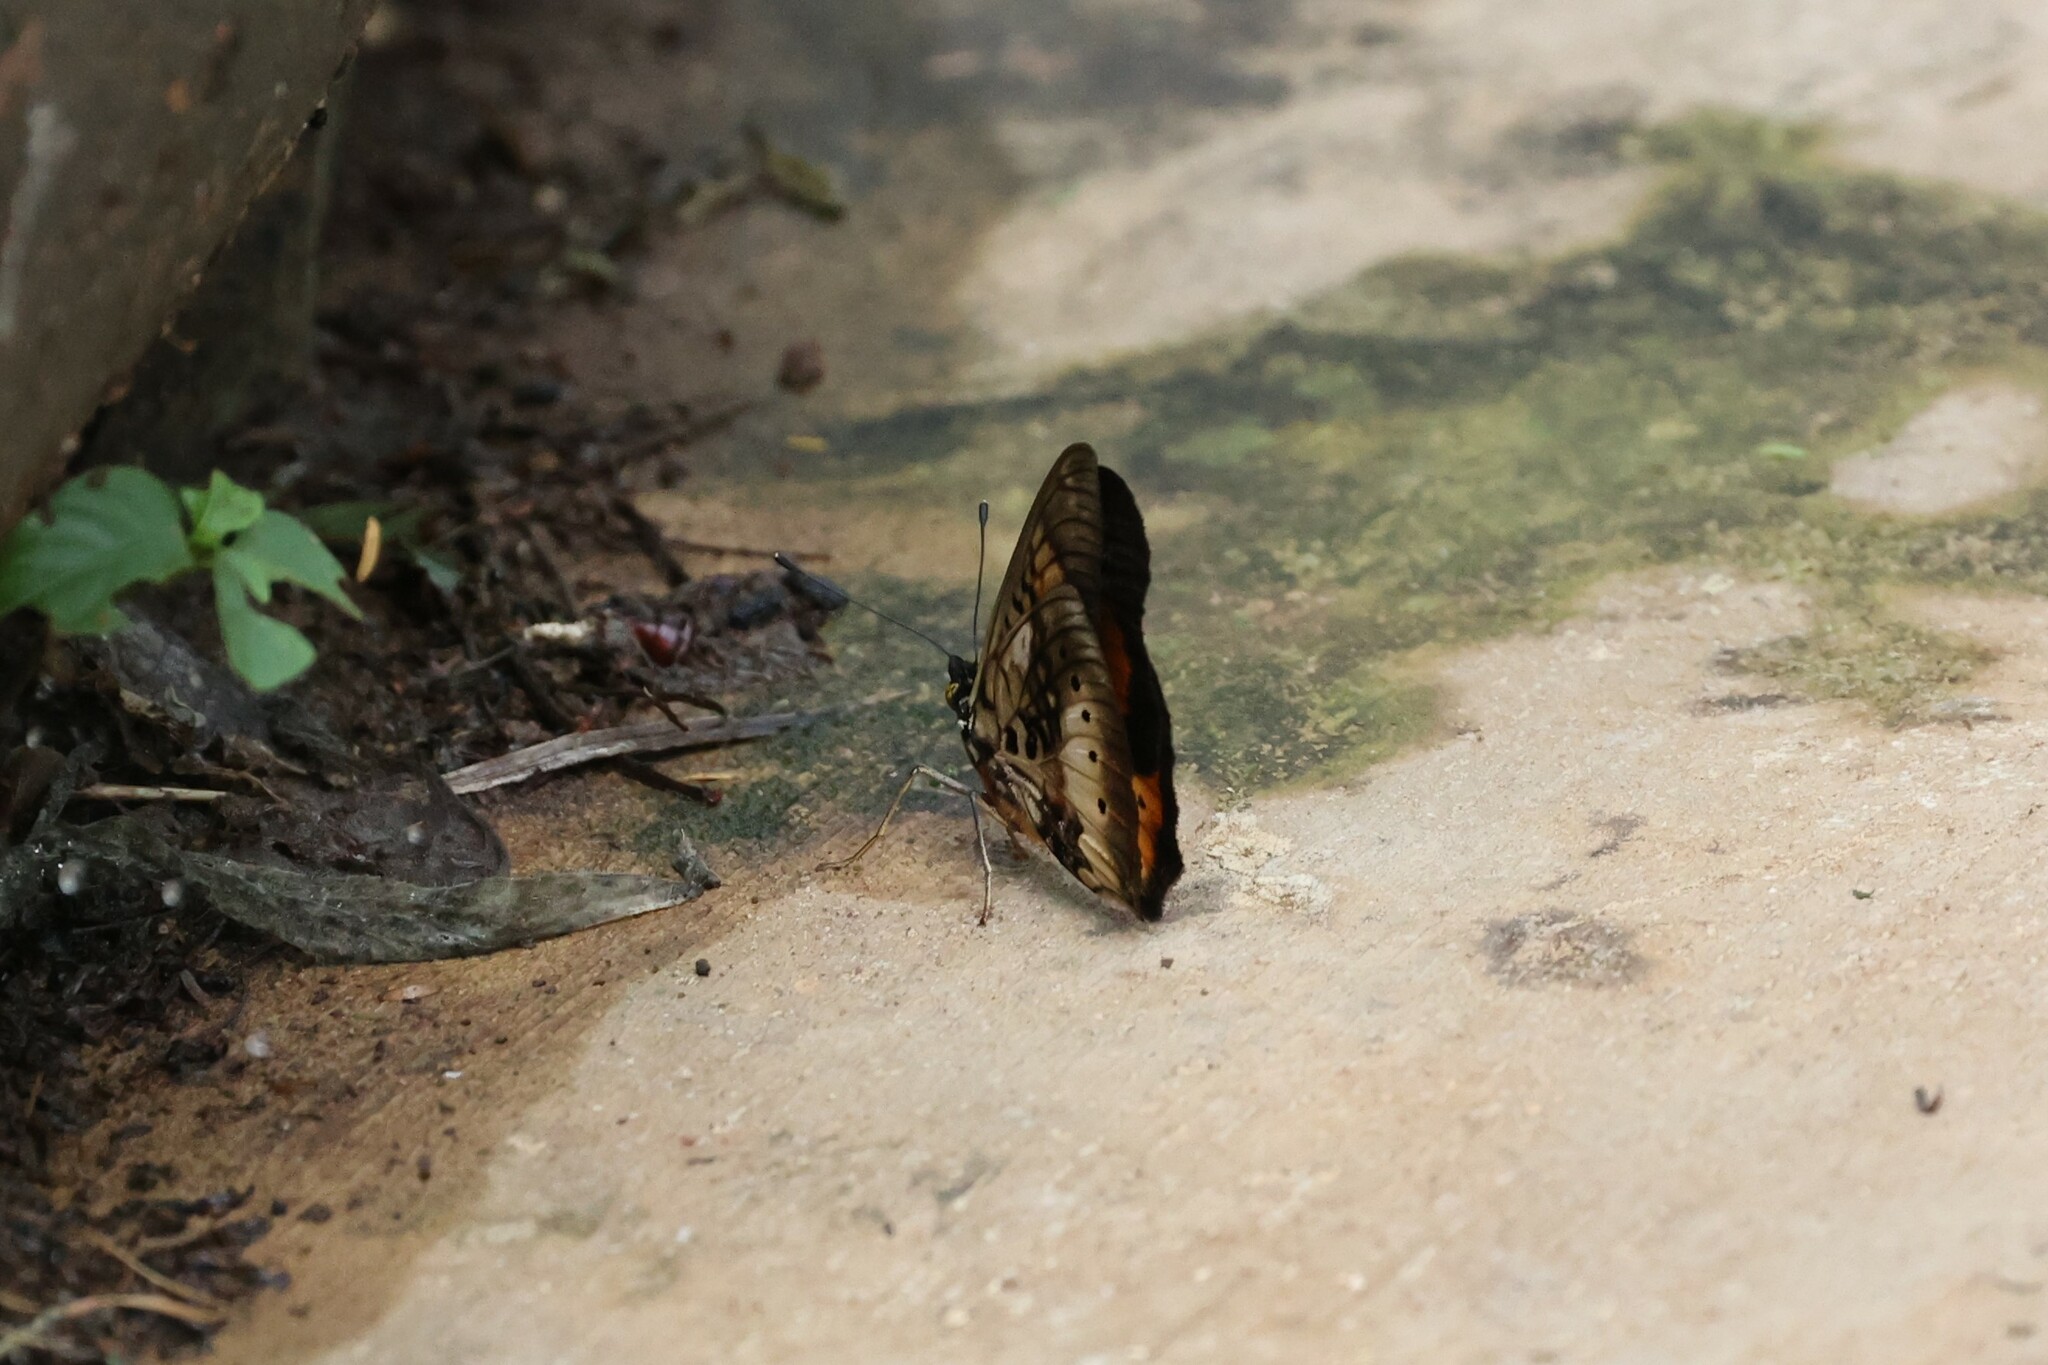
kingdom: Animalia
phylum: Arthropoda
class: Insecta
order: Lepidoptera
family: Nymphalidae
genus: Junonia
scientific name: Junonia westermanni
